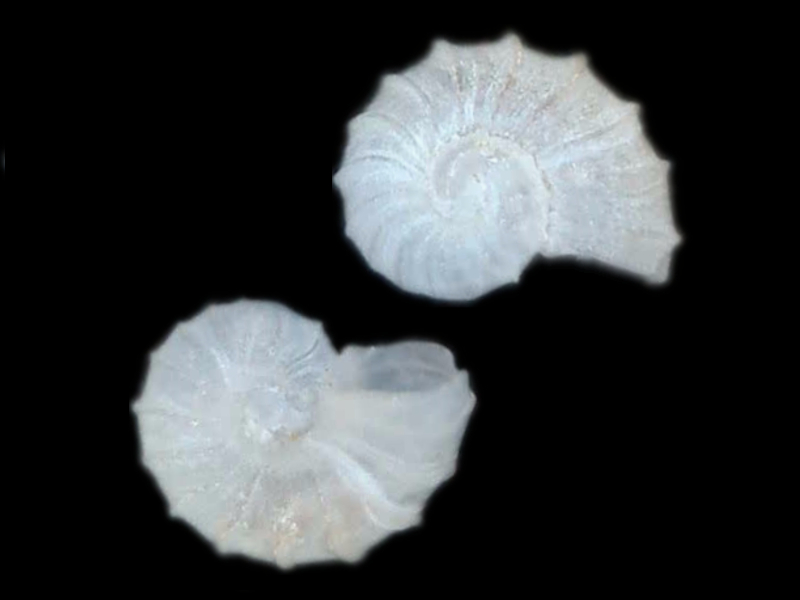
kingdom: Animalia
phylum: Mollusca
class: Gastropoda
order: Trochida
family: Skeneidae
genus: Pondorbis
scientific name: Pondorbis japonicus
